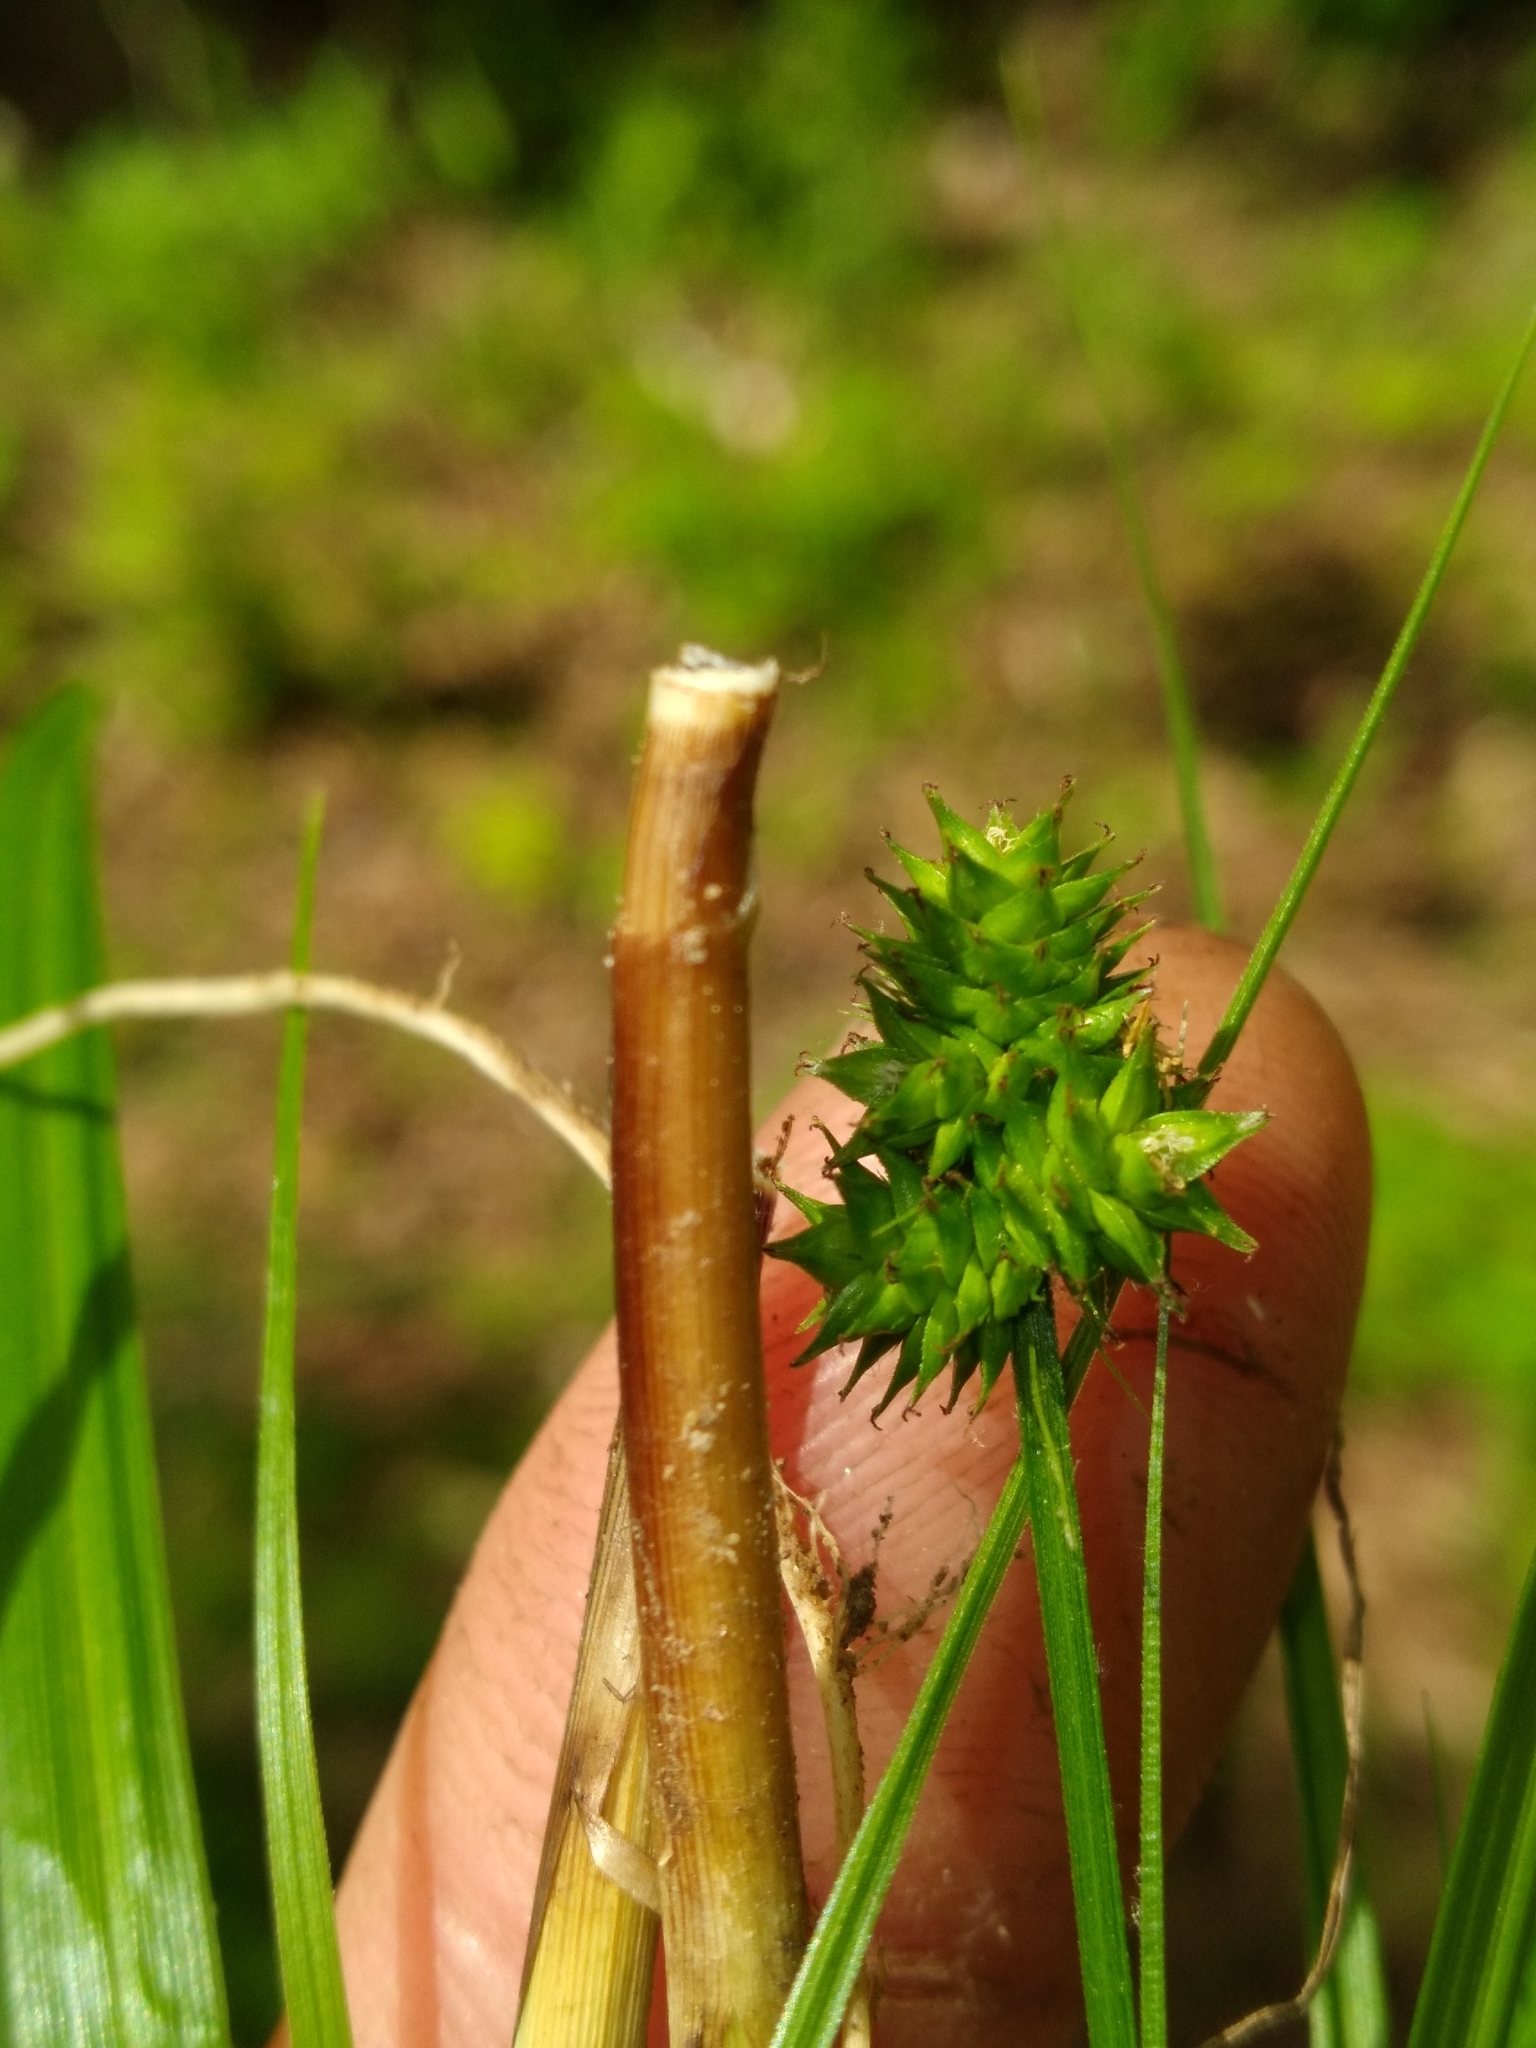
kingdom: Plantae
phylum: Tracheophyta
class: Liliopsida
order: Poales
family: Cyperaceae
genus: Carex
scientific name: Carex cephalophora
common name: Oval-headed sedge
